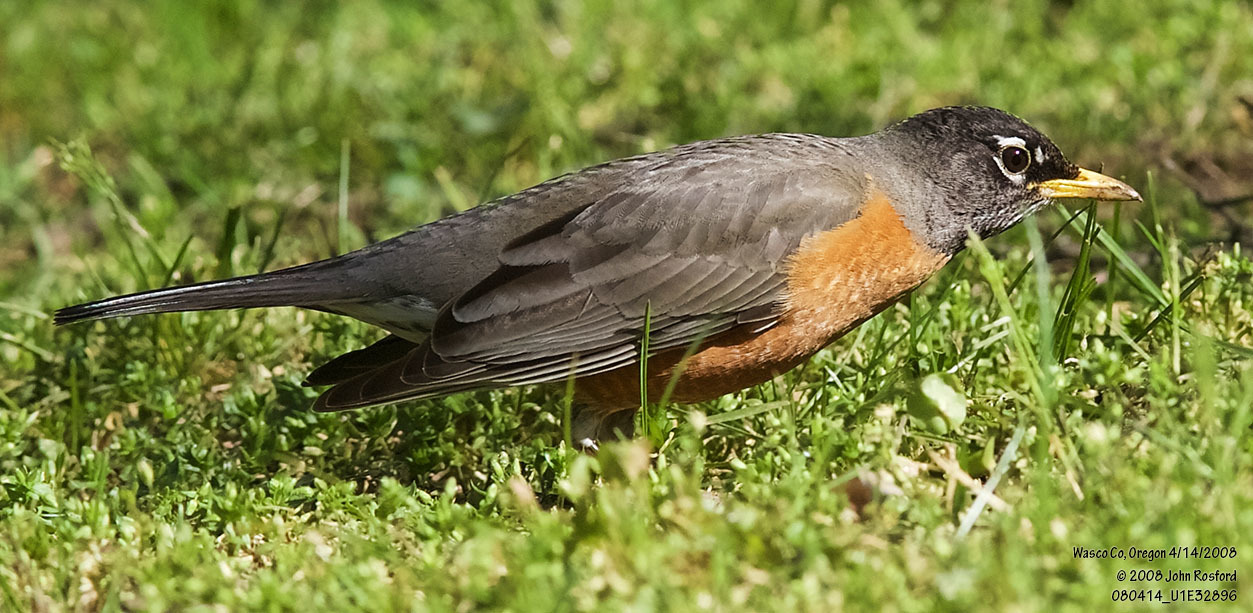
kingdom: Animalia
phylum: Chordata
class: Aves
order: Passeriformes
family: Turdidae
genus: Turdus
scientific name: Turdus migratorius
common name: American robin
